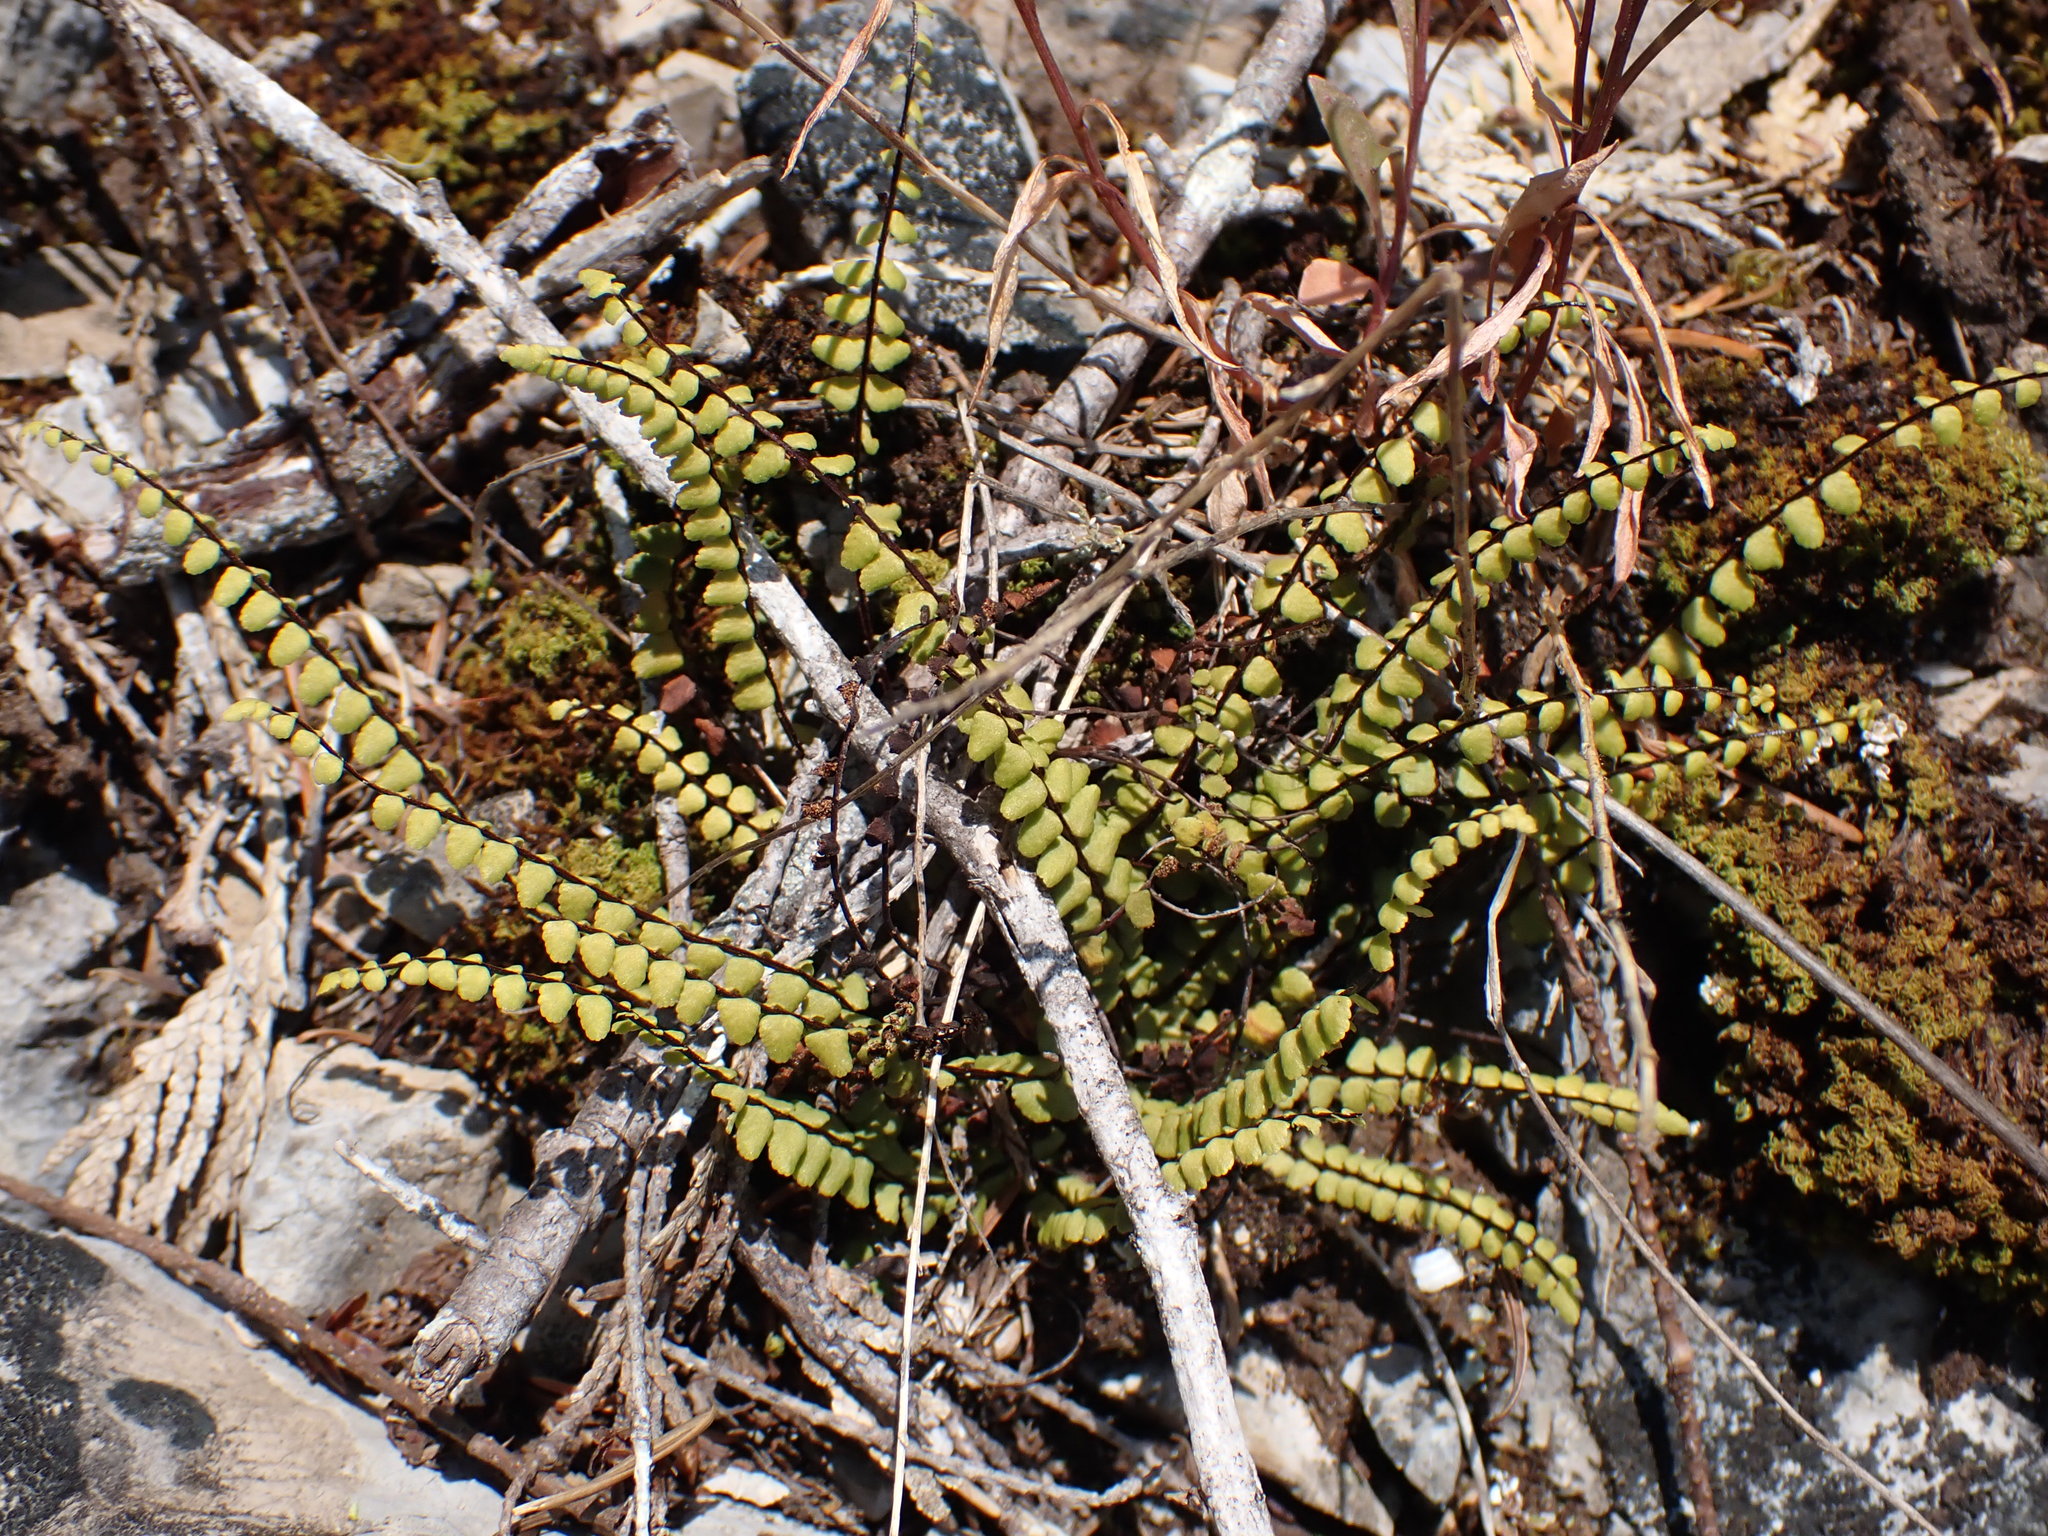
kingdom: Plantae
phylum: Tracheophyta
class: Polypodiopsida
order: Polypodiales
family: Aspleniaceae
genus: Asplenium
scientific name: Asplenium trichomanes
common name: Maidenhair spleenwort
